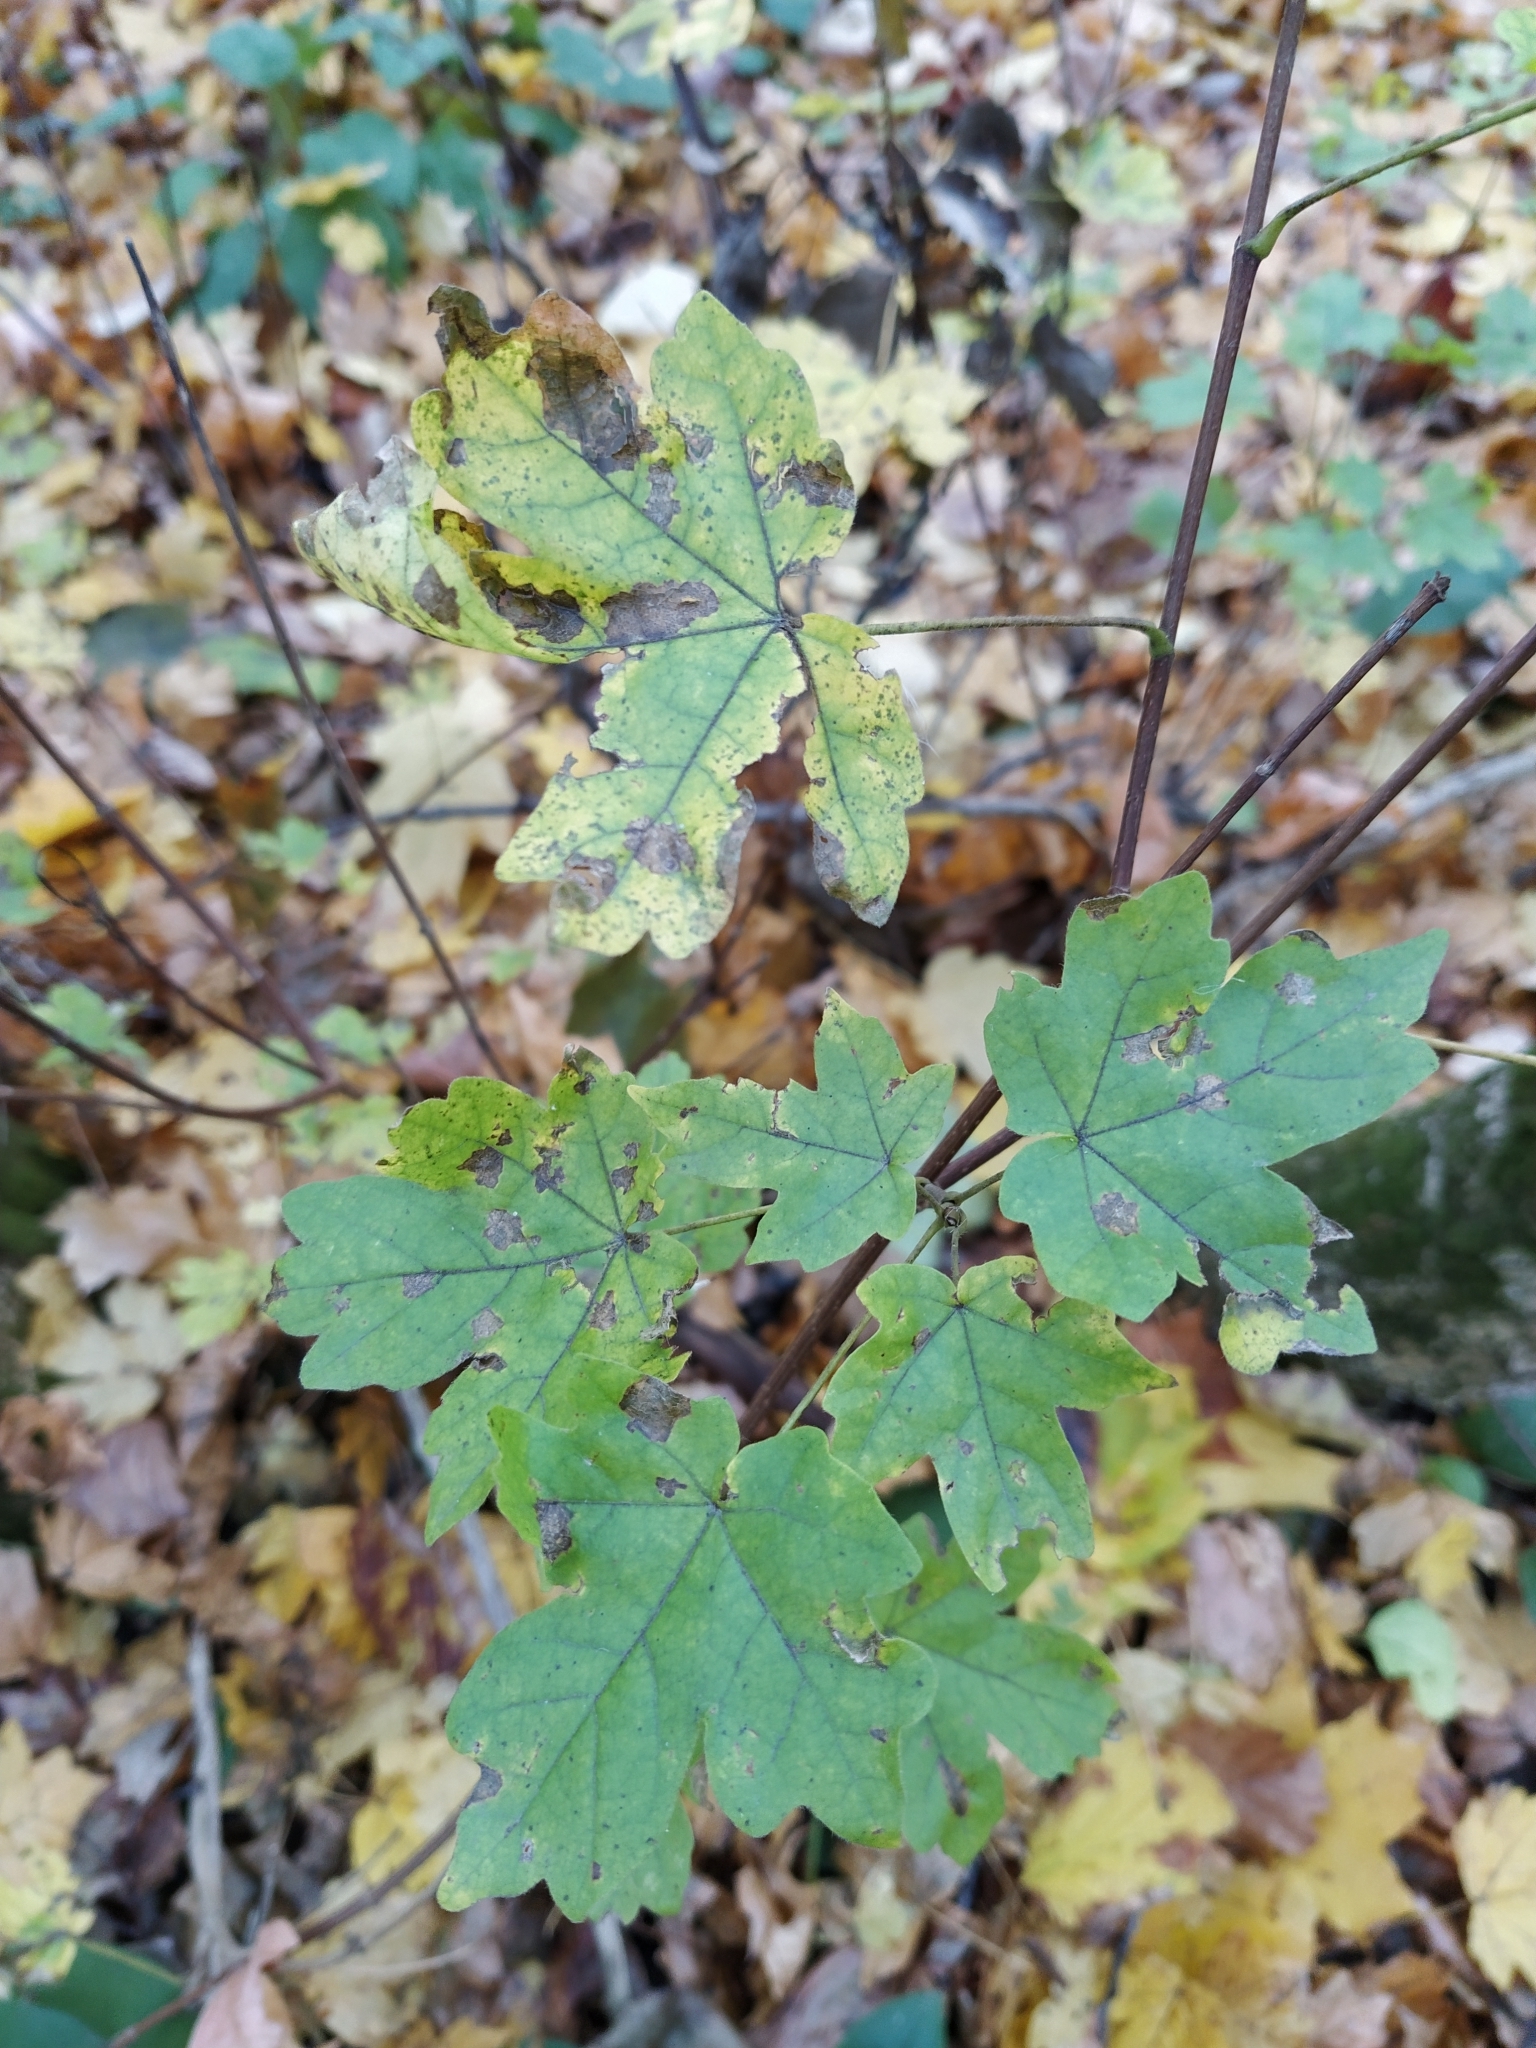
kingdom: Plantae
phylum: Tracheophyta
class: Magnoliopsida
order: Sapindales
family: Sapindaceae
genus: Acer
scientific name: Acer campestre
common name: Field maple
